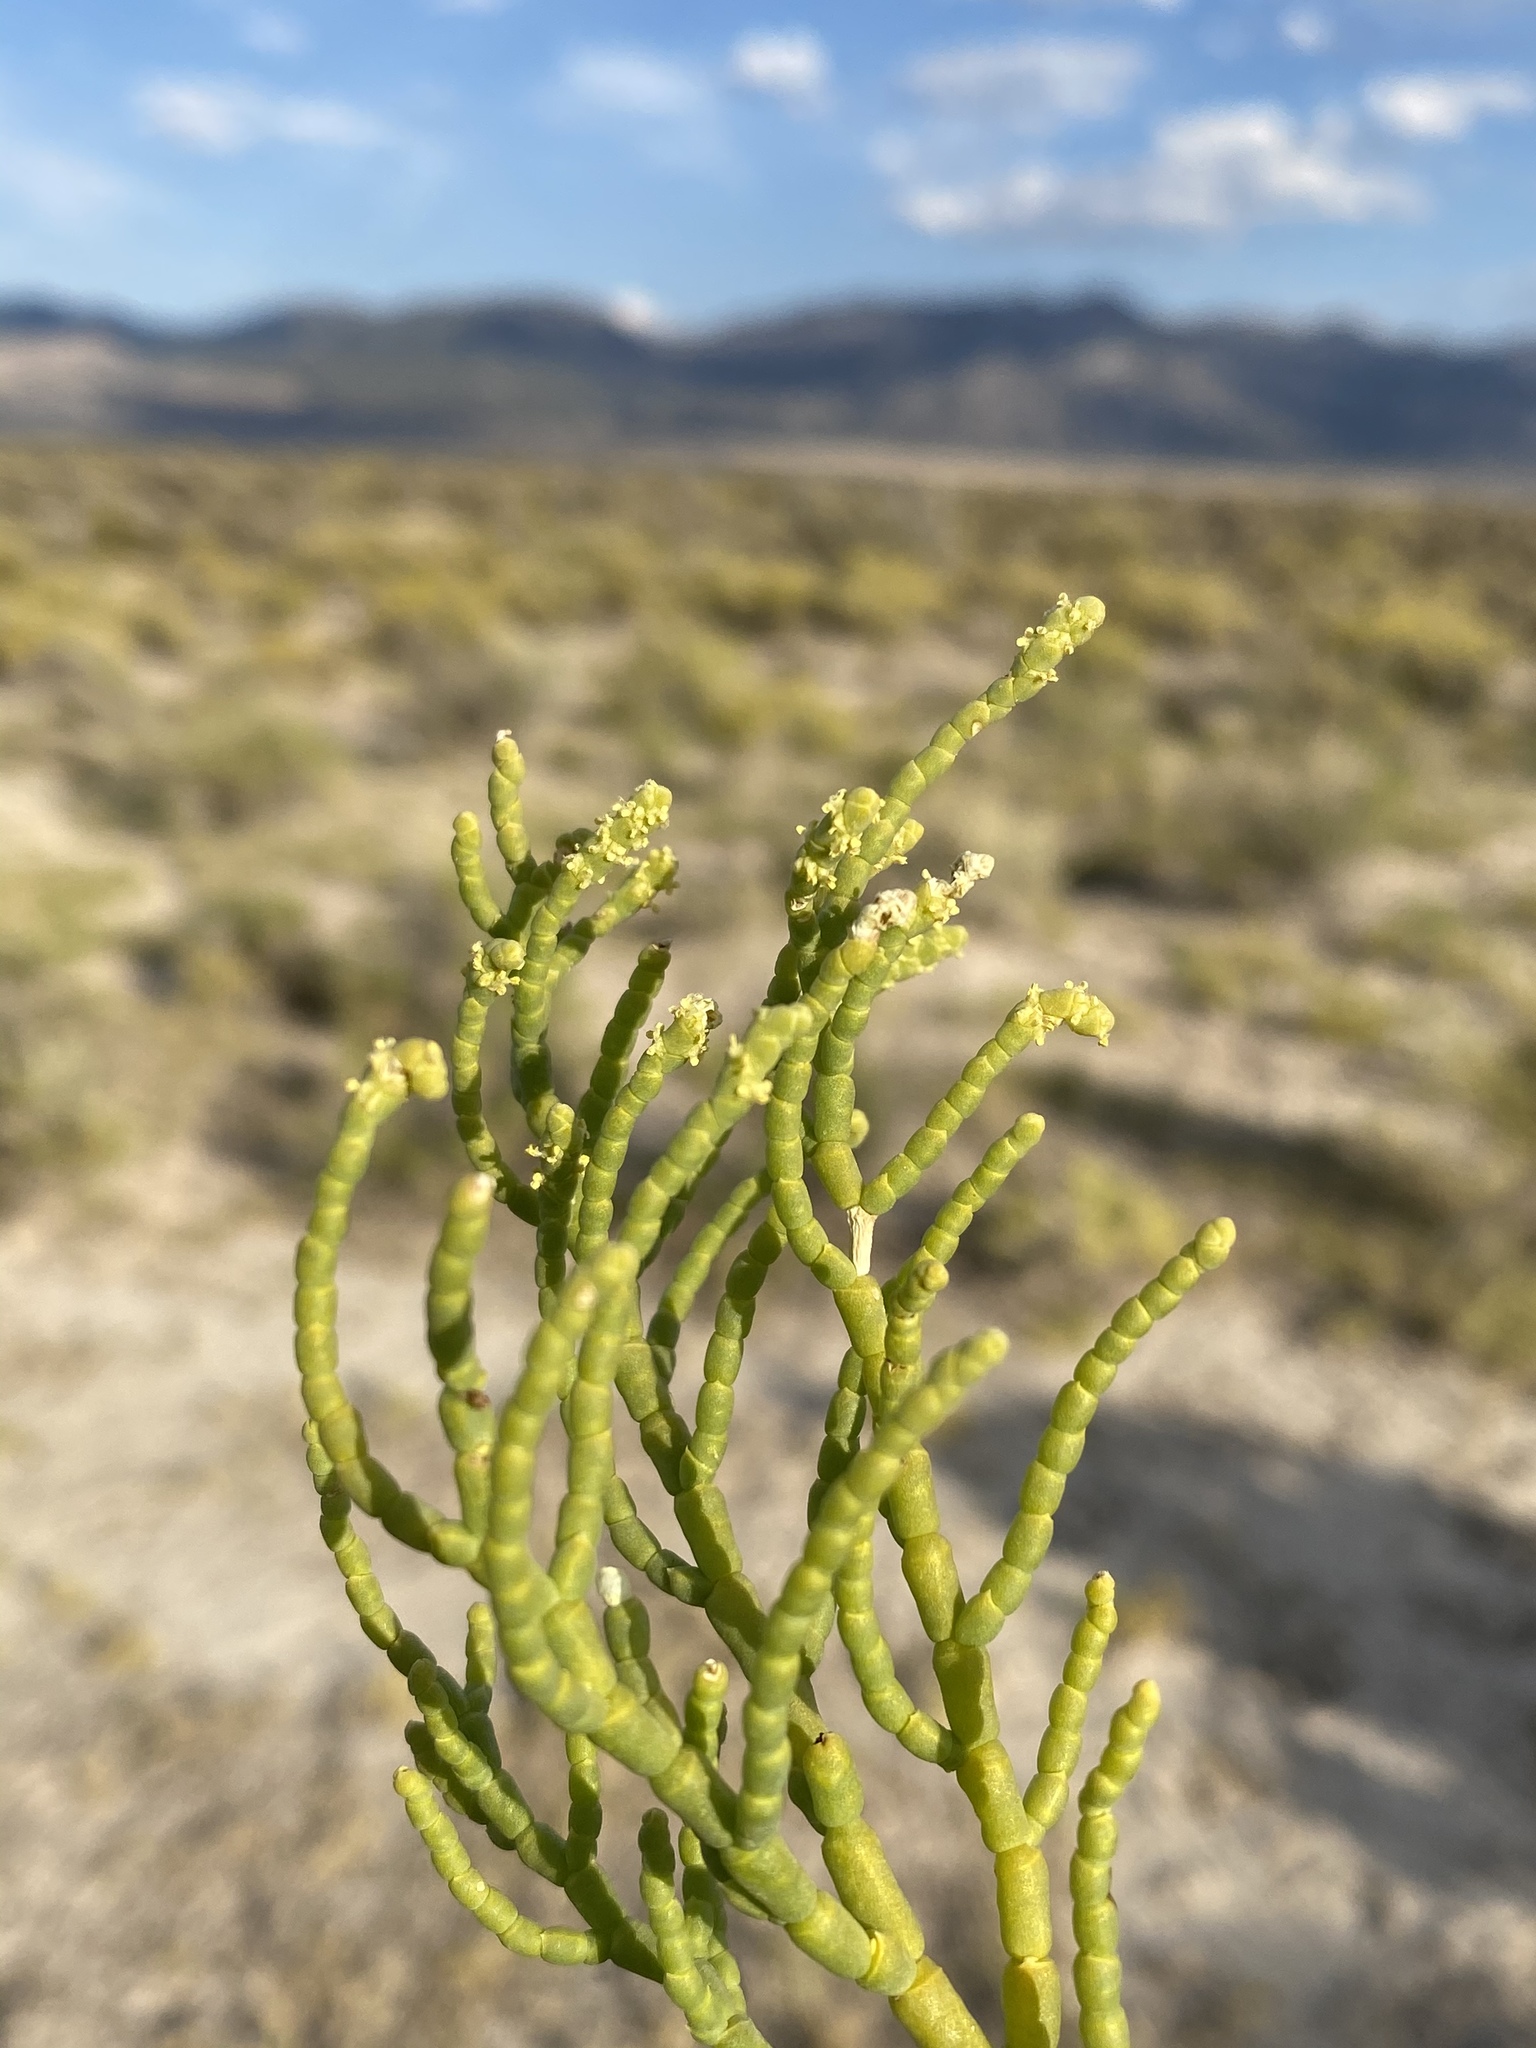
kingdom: Plantae
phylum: Tracheophyta
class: Magnoliopsida
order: Caryophyllales
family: Amaranthaceae
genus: Allenrolfea
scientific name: Allenrolfea occidentalis
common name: Iodine-bush
